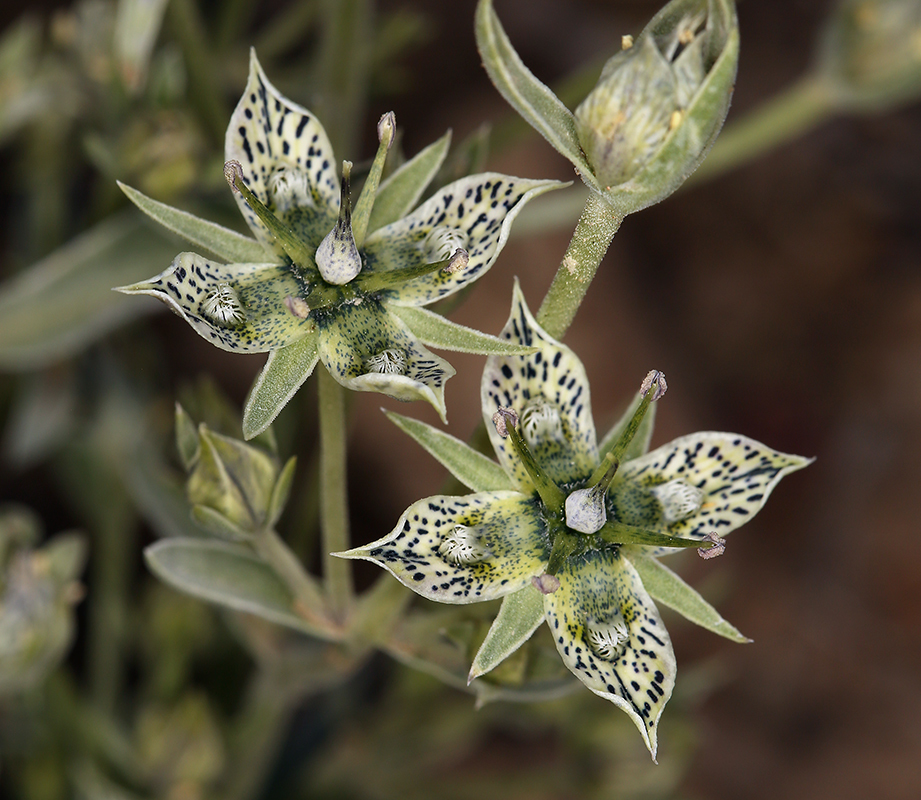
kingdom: Plantae
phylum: Tracheophyta
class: Magnoliopsida
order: Gentianales
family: Gentianaceae
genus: Frasera
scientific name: Frasera puberulenta
